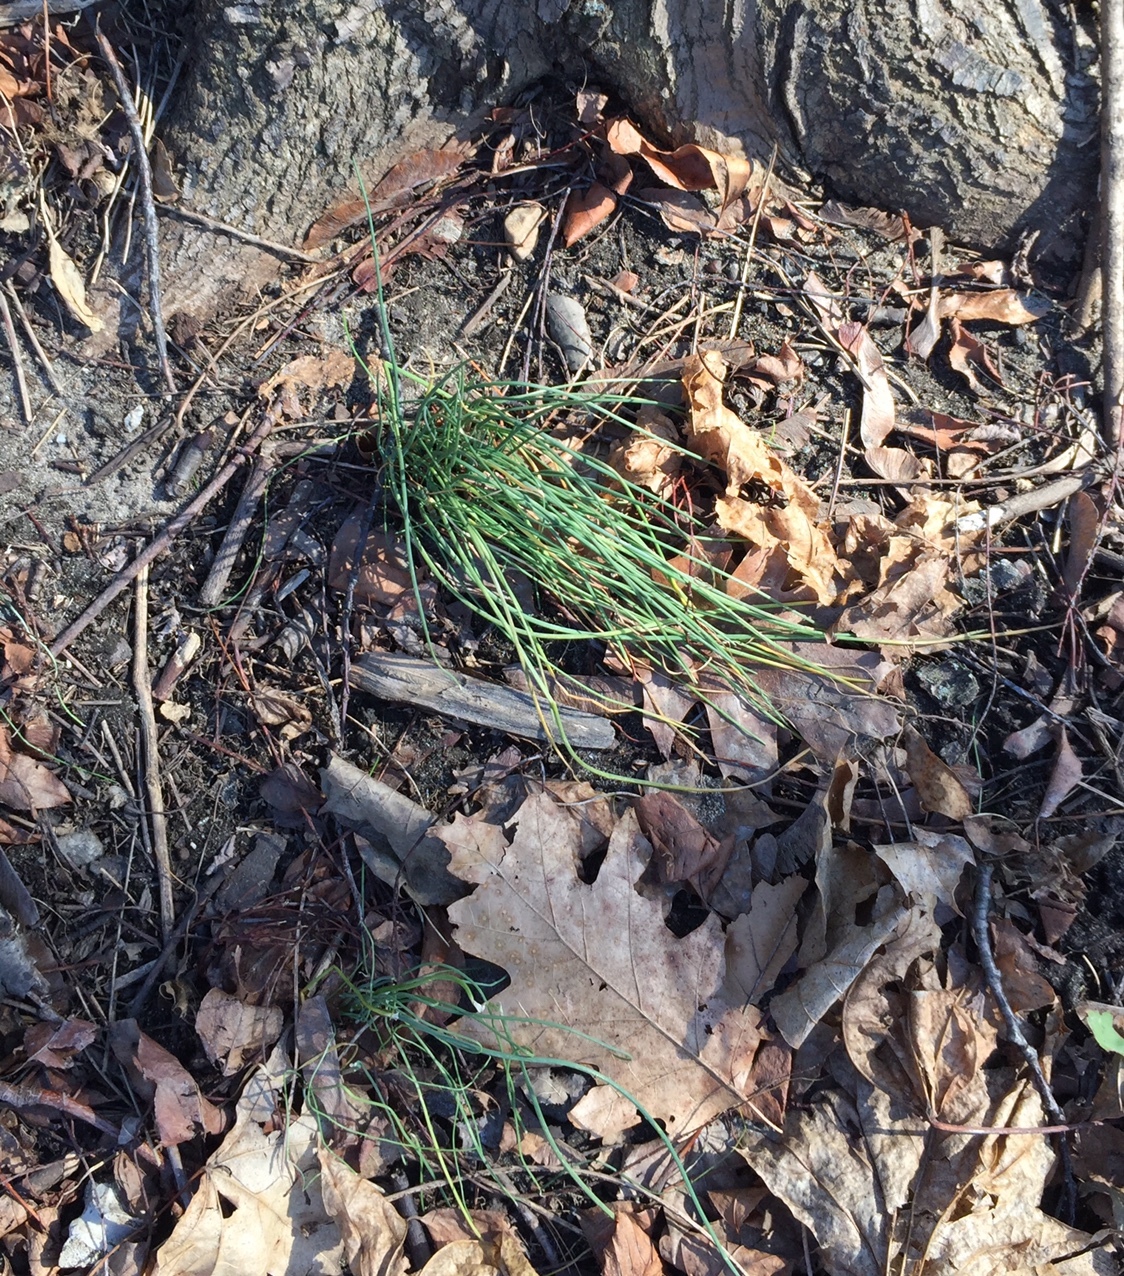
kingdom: Plantae
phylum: Tracheophyta
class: Liliopsida
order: Asparagales
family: Amaryllidaceae
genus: Allium
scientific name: Allium vineale
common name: Crow garlic
